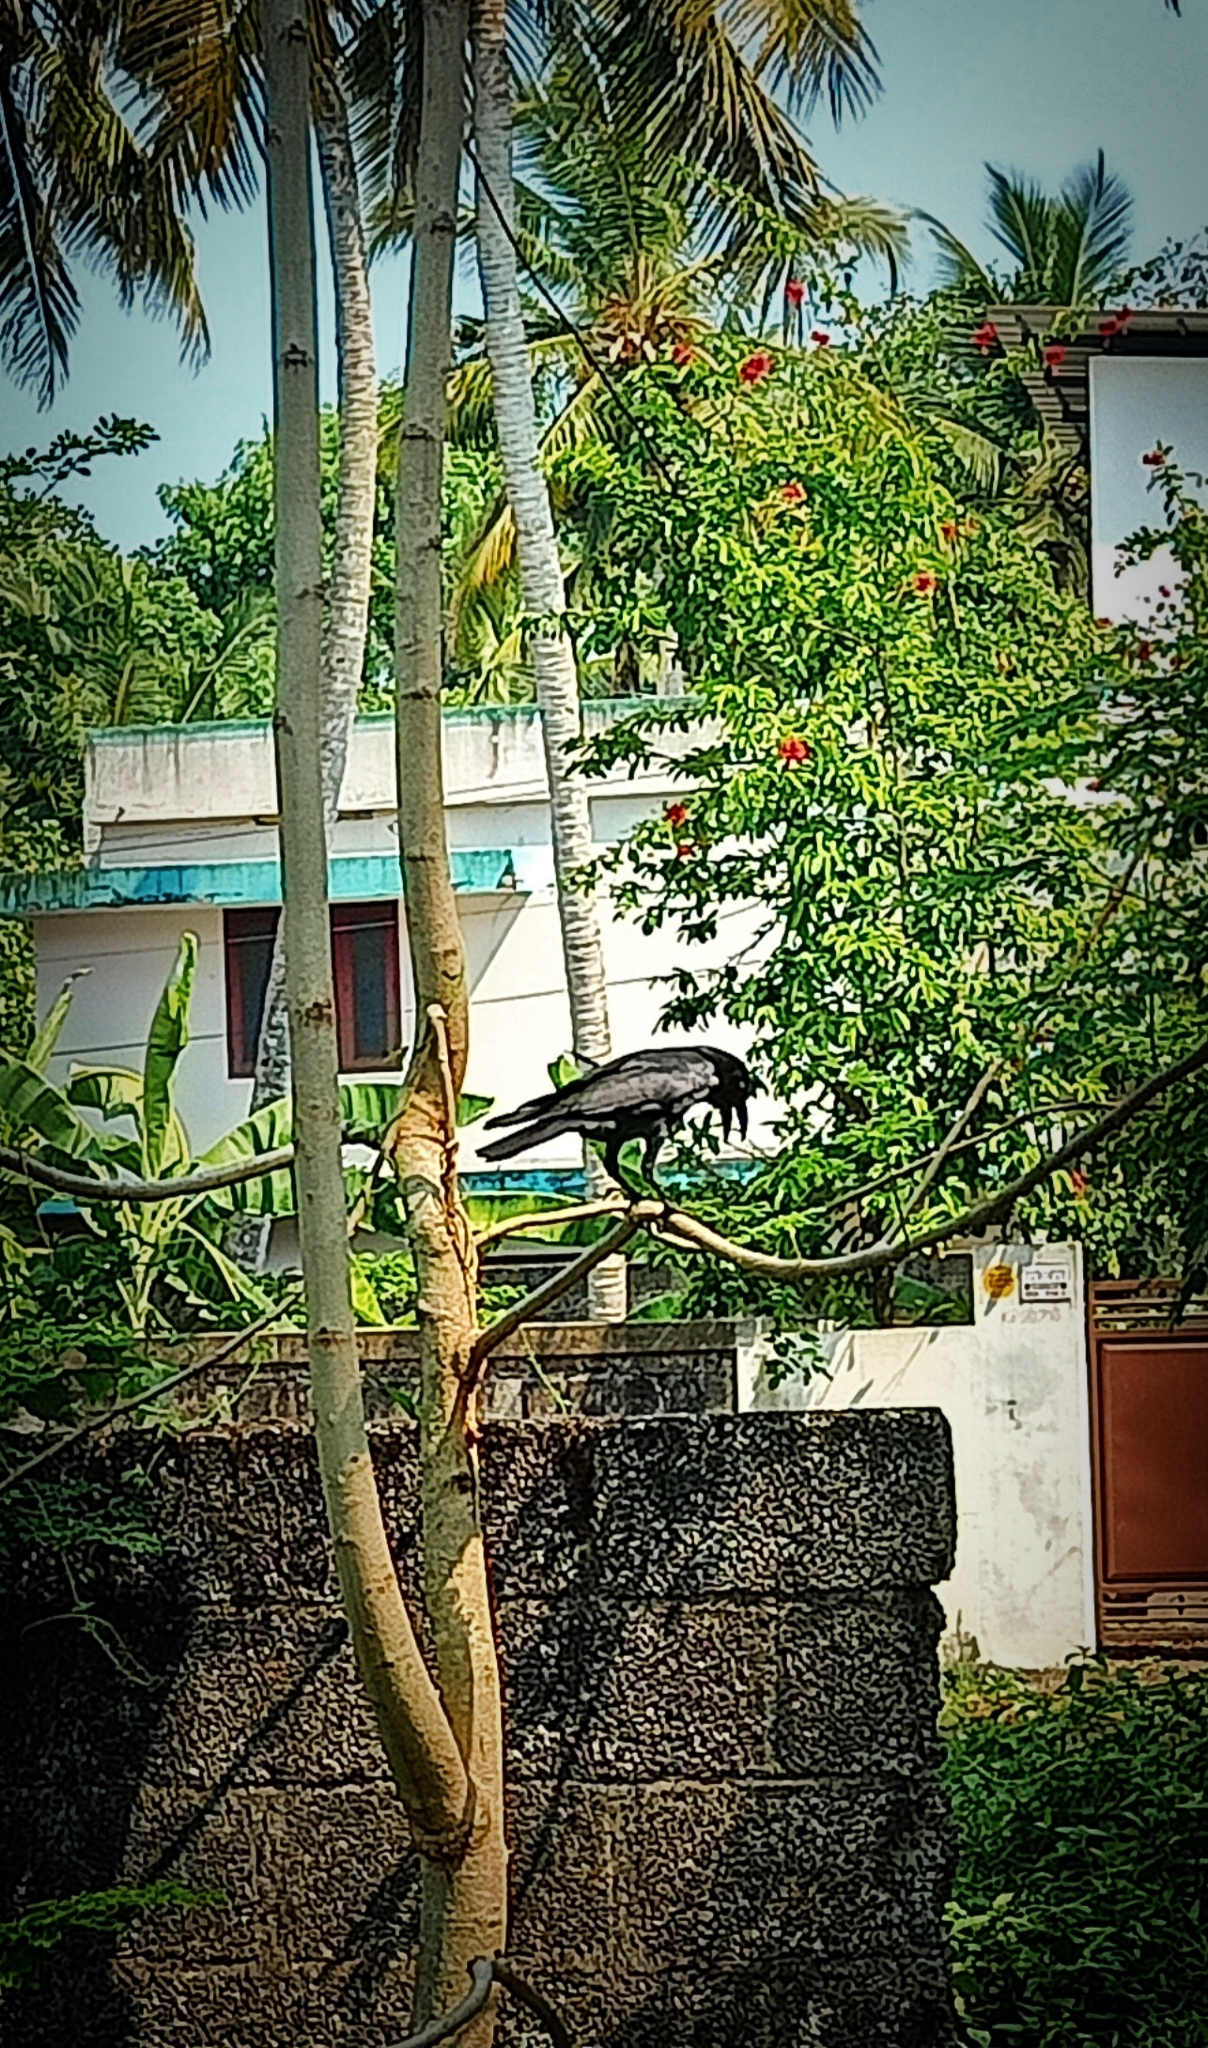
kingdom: Animalia
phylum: Chordata
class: Aves
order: Passeriformes
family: Corvidae
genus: Corvus
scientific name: Corvus macrorhynchos
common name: Large-billed crow
